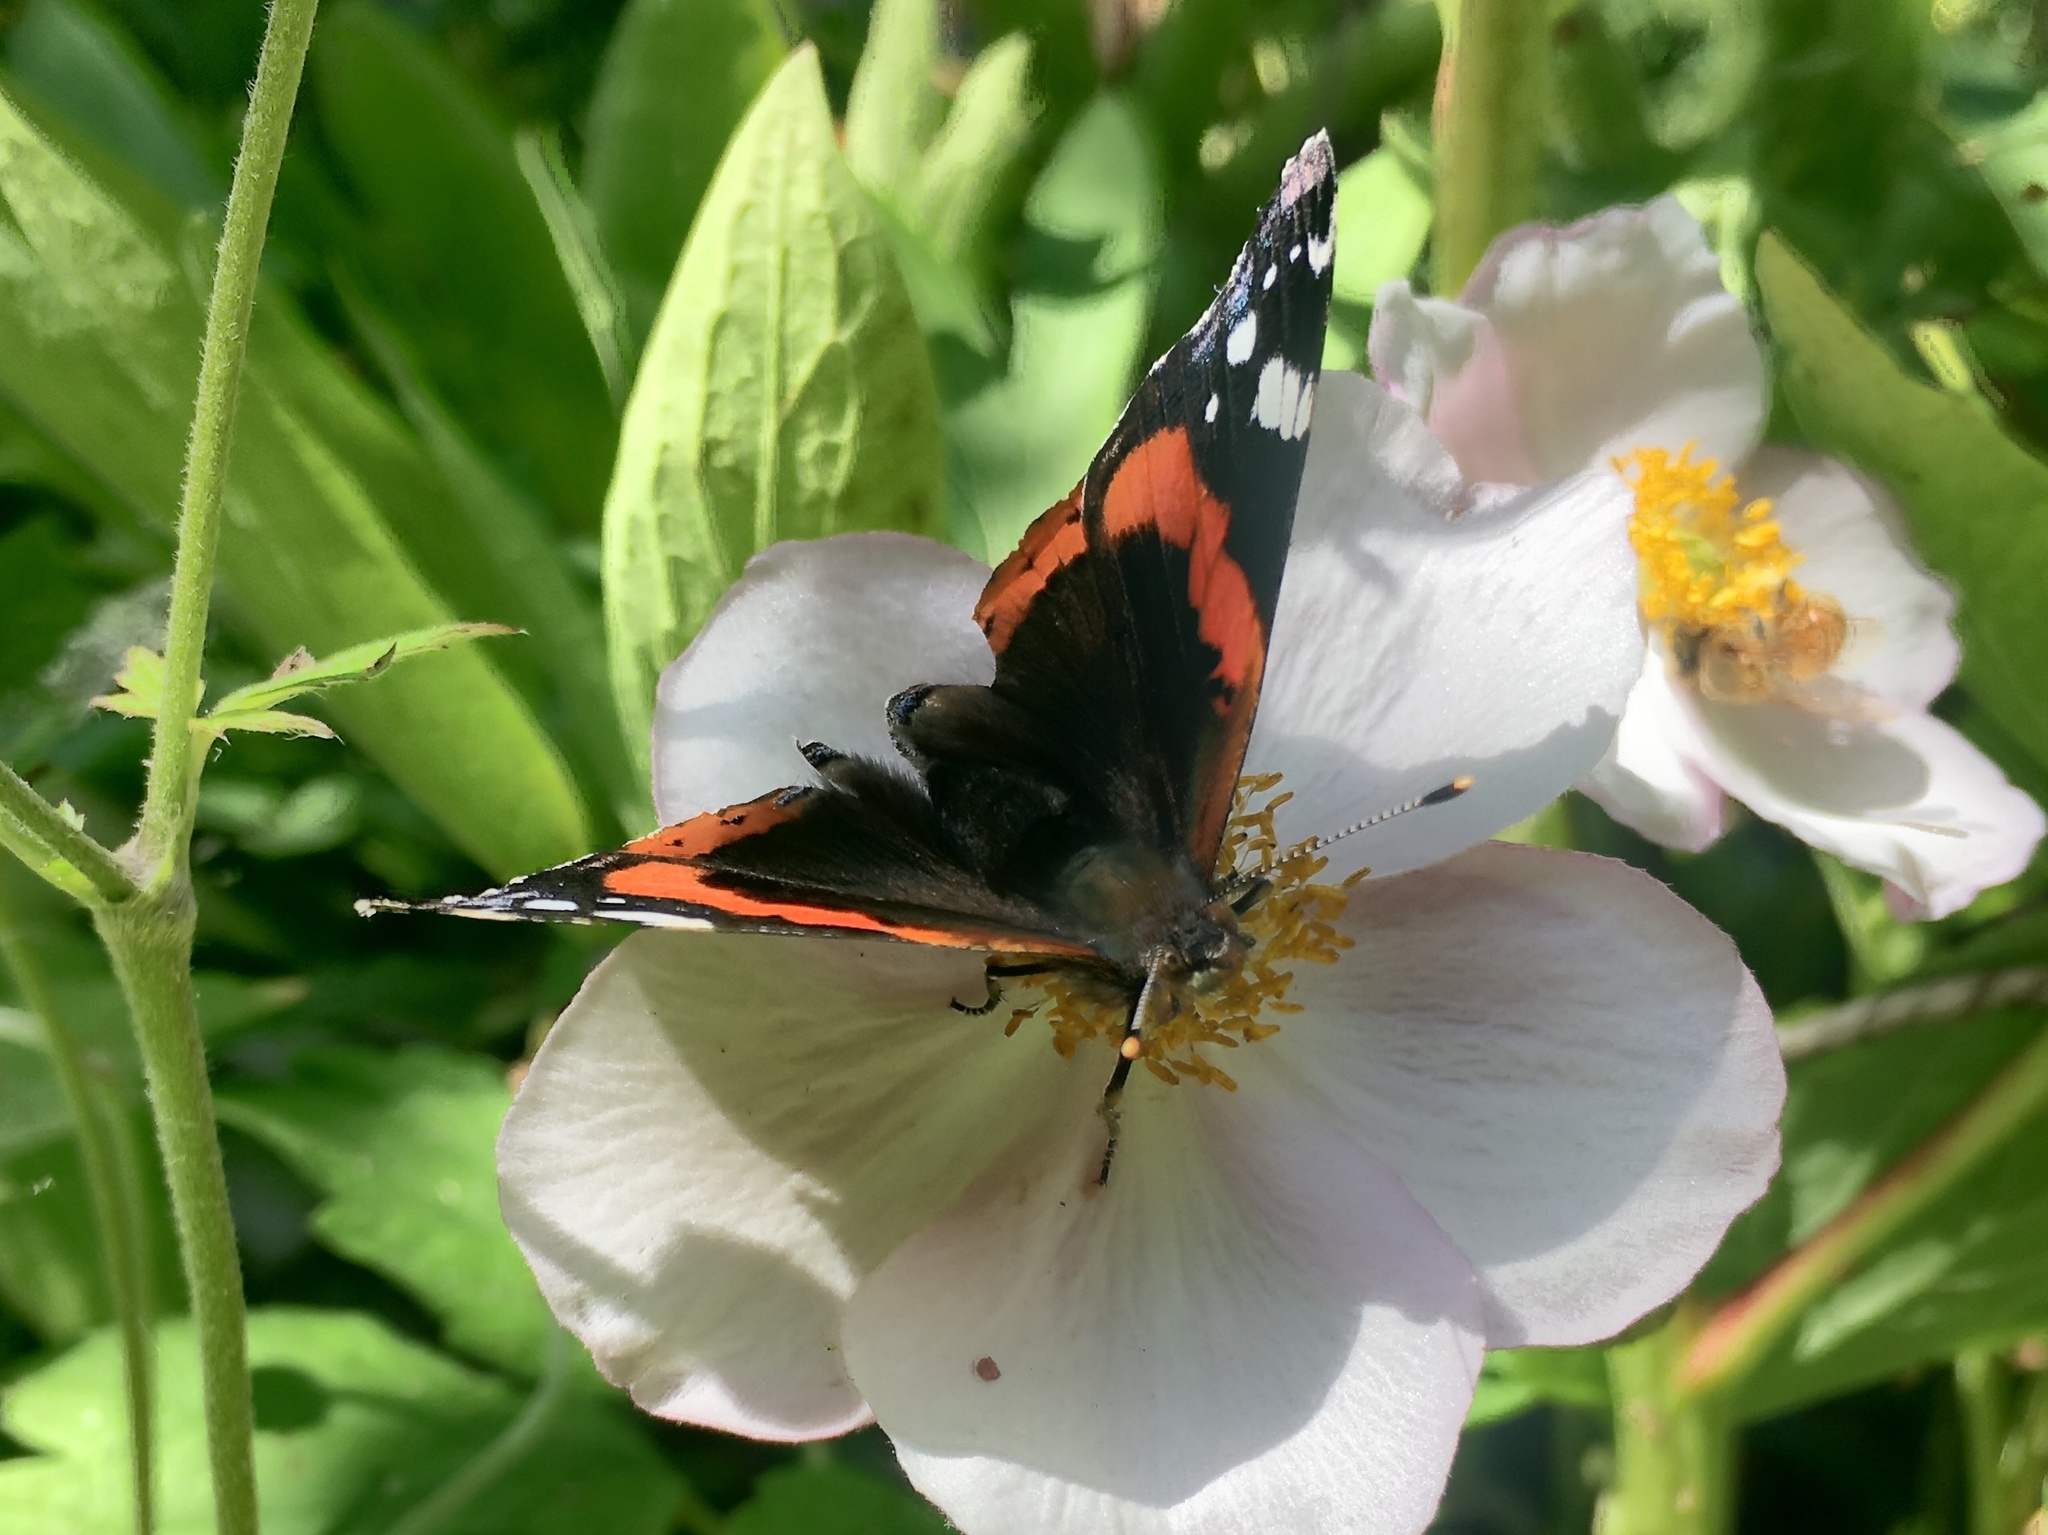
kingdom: Animalia
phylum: Arthropoda
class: Insecta
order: Lepidoptera
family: Nymphalidae
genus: Vanessa
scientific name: Vanessa atalanta
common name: Red admiral
